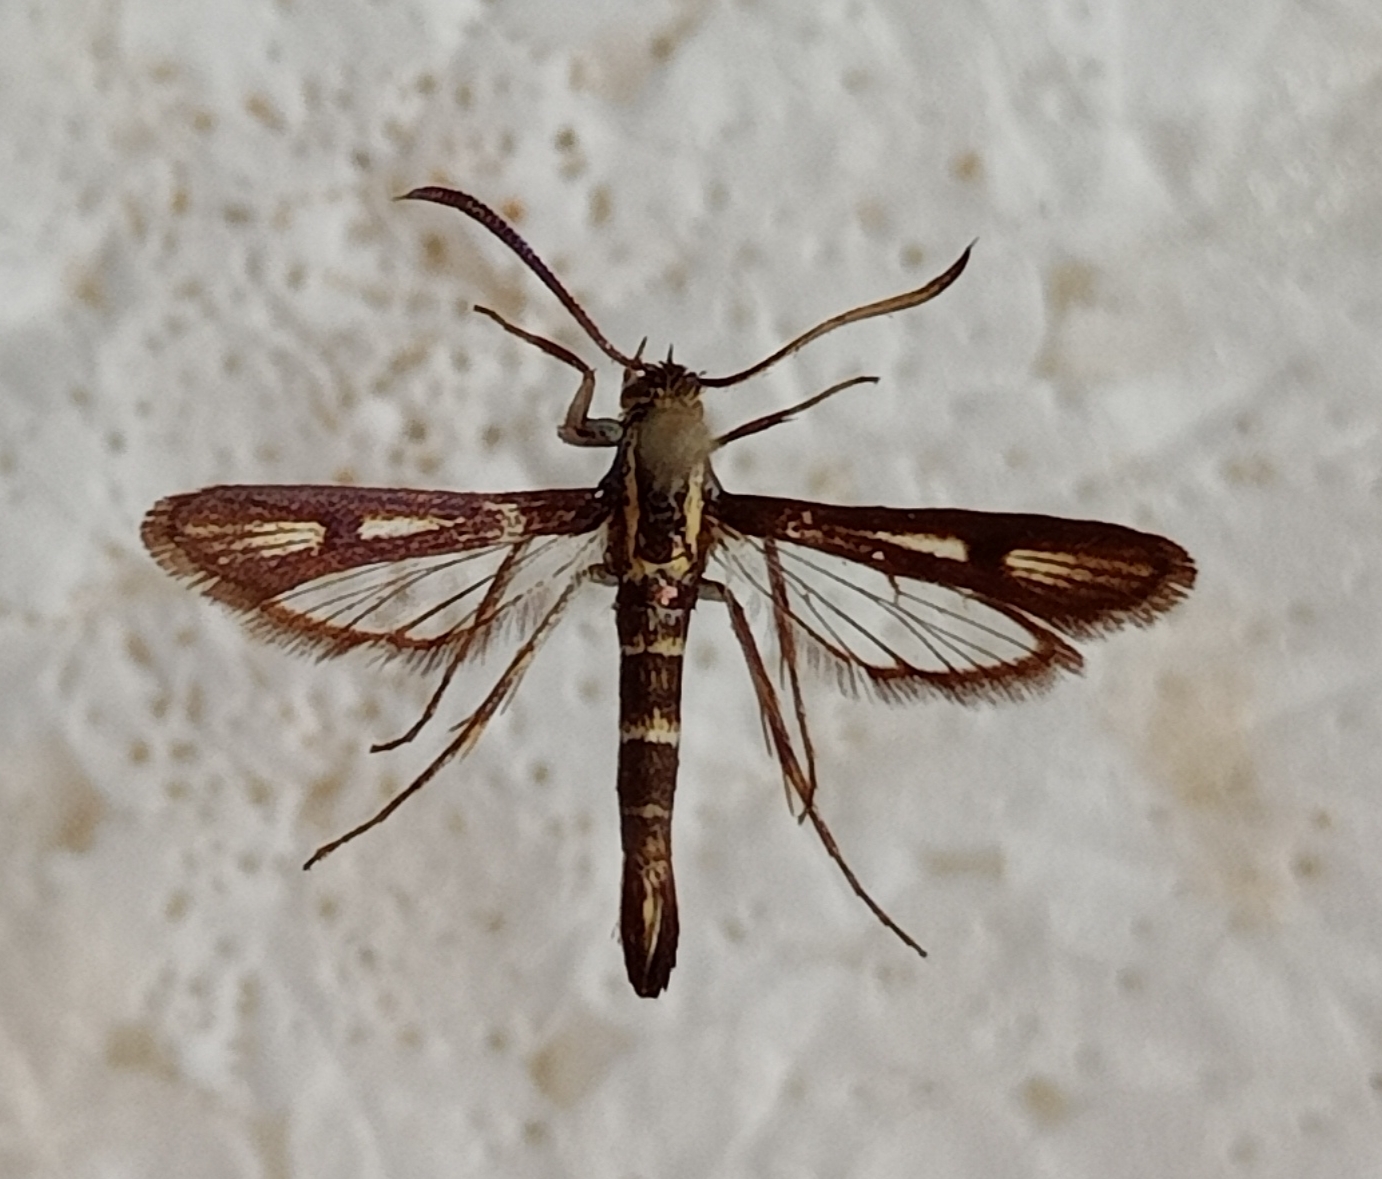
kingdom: Animalia
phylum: Arthropoda
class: Insecta
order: Lepidoptera
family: Sesiidae
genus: Chamaesphecia
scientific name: Chamaesphecia alysoniformis
